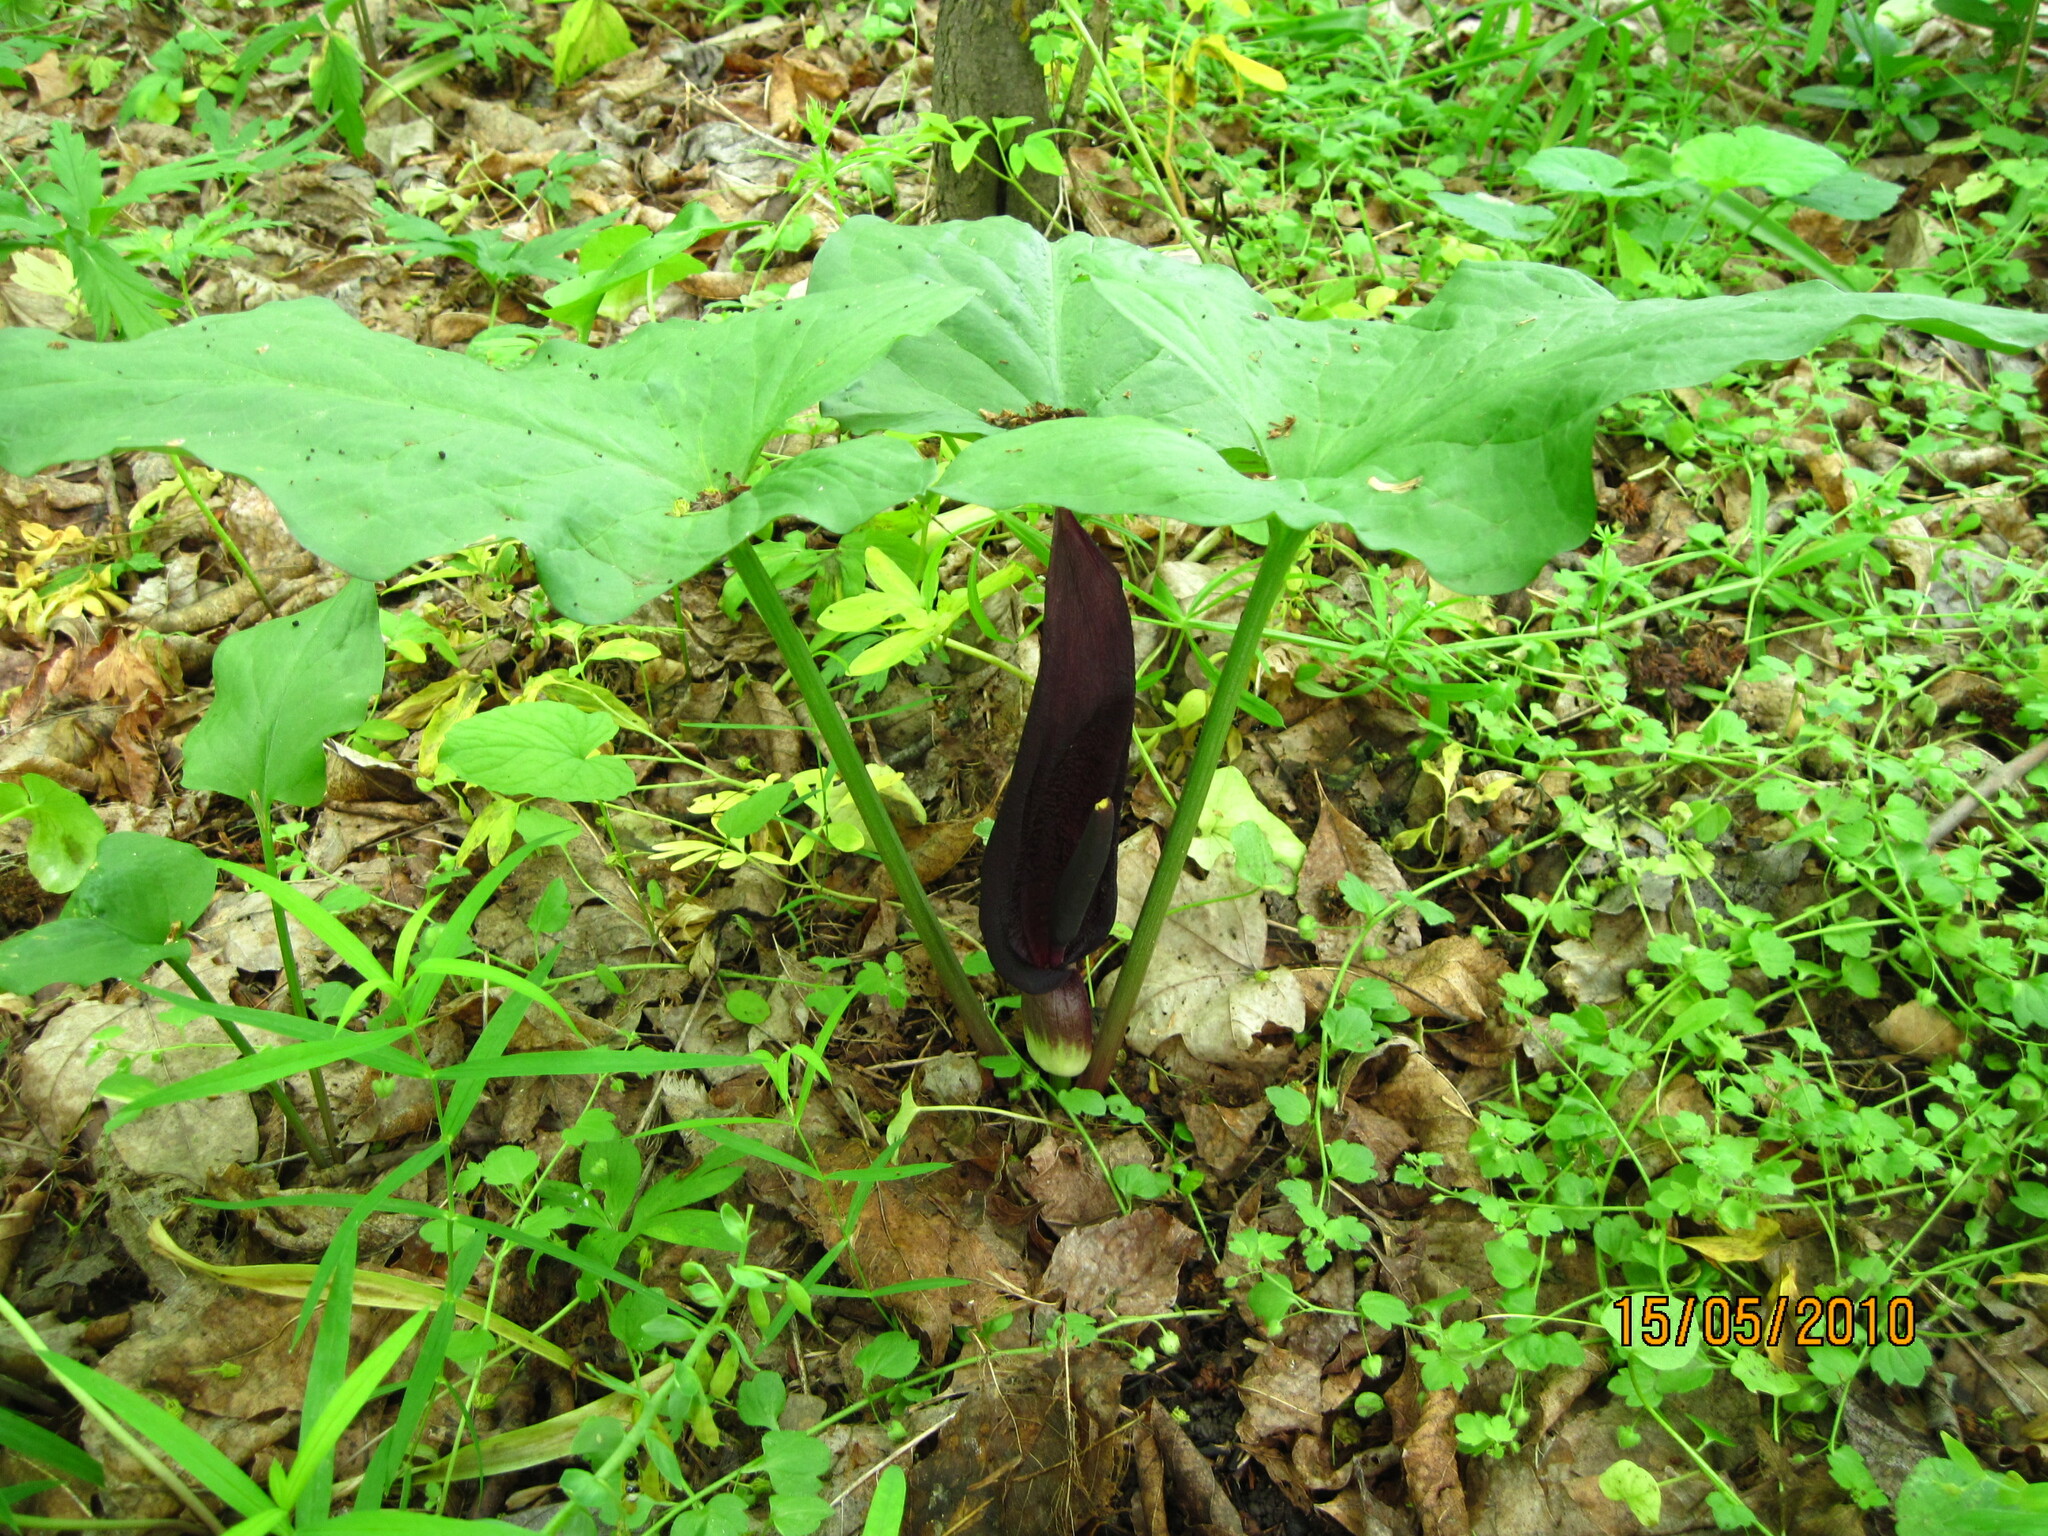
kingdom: Plantae
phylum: Tracheophyta
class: Liliopsida
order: Alismatales
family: Araceae
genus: Arum
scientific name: Arum orientale
